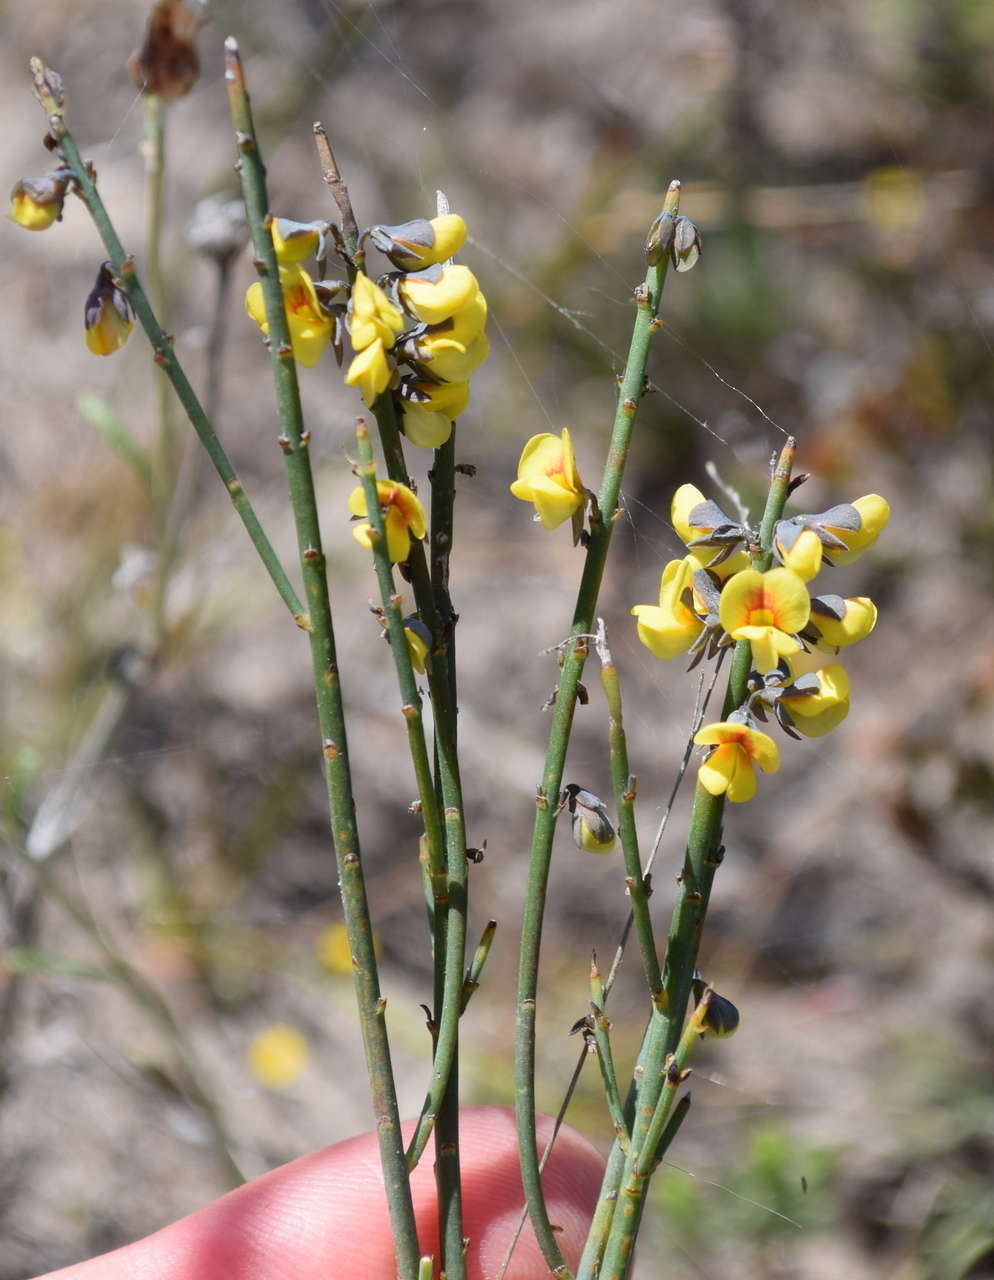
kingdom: Plantae
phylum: Tracheophyta
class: Magnoliopsida
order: Fabales
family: Fabaceae
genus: Sphaerolobium
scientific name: Sphaerolobium vimineum
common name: Leafless globe-pea
